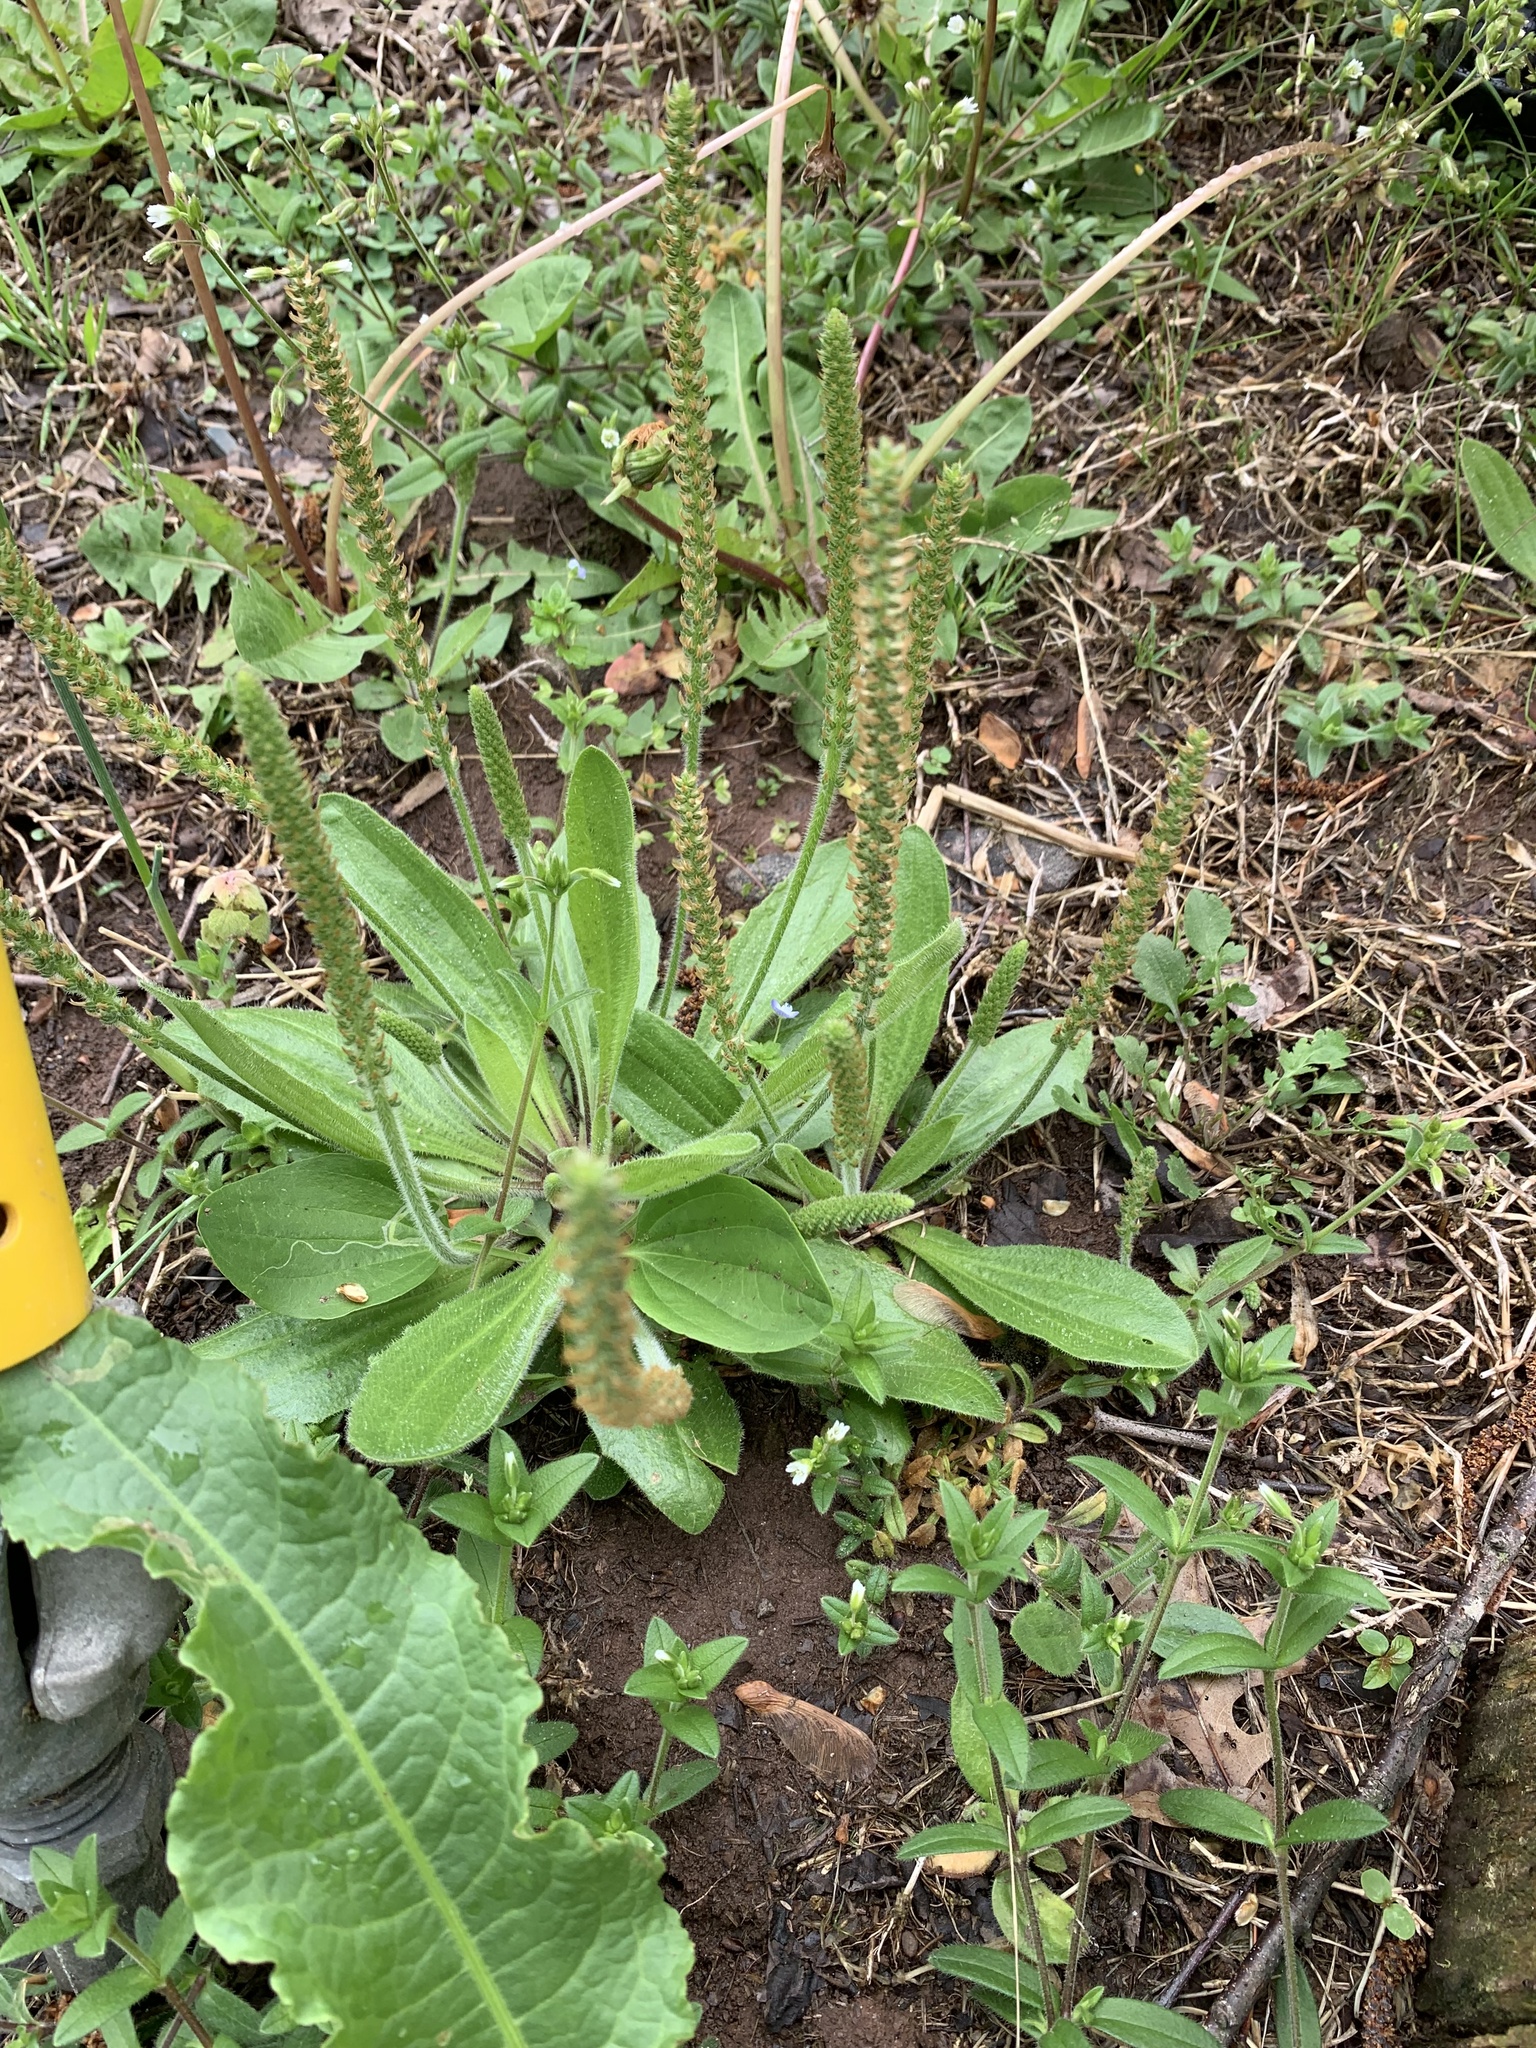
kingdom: Plantae
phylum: Tracheophyta
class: Magnoliopsida
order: Lamiales
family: Plantaginaceae
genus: Plantago
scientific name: Plantago virginica
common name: Hoary plantain
